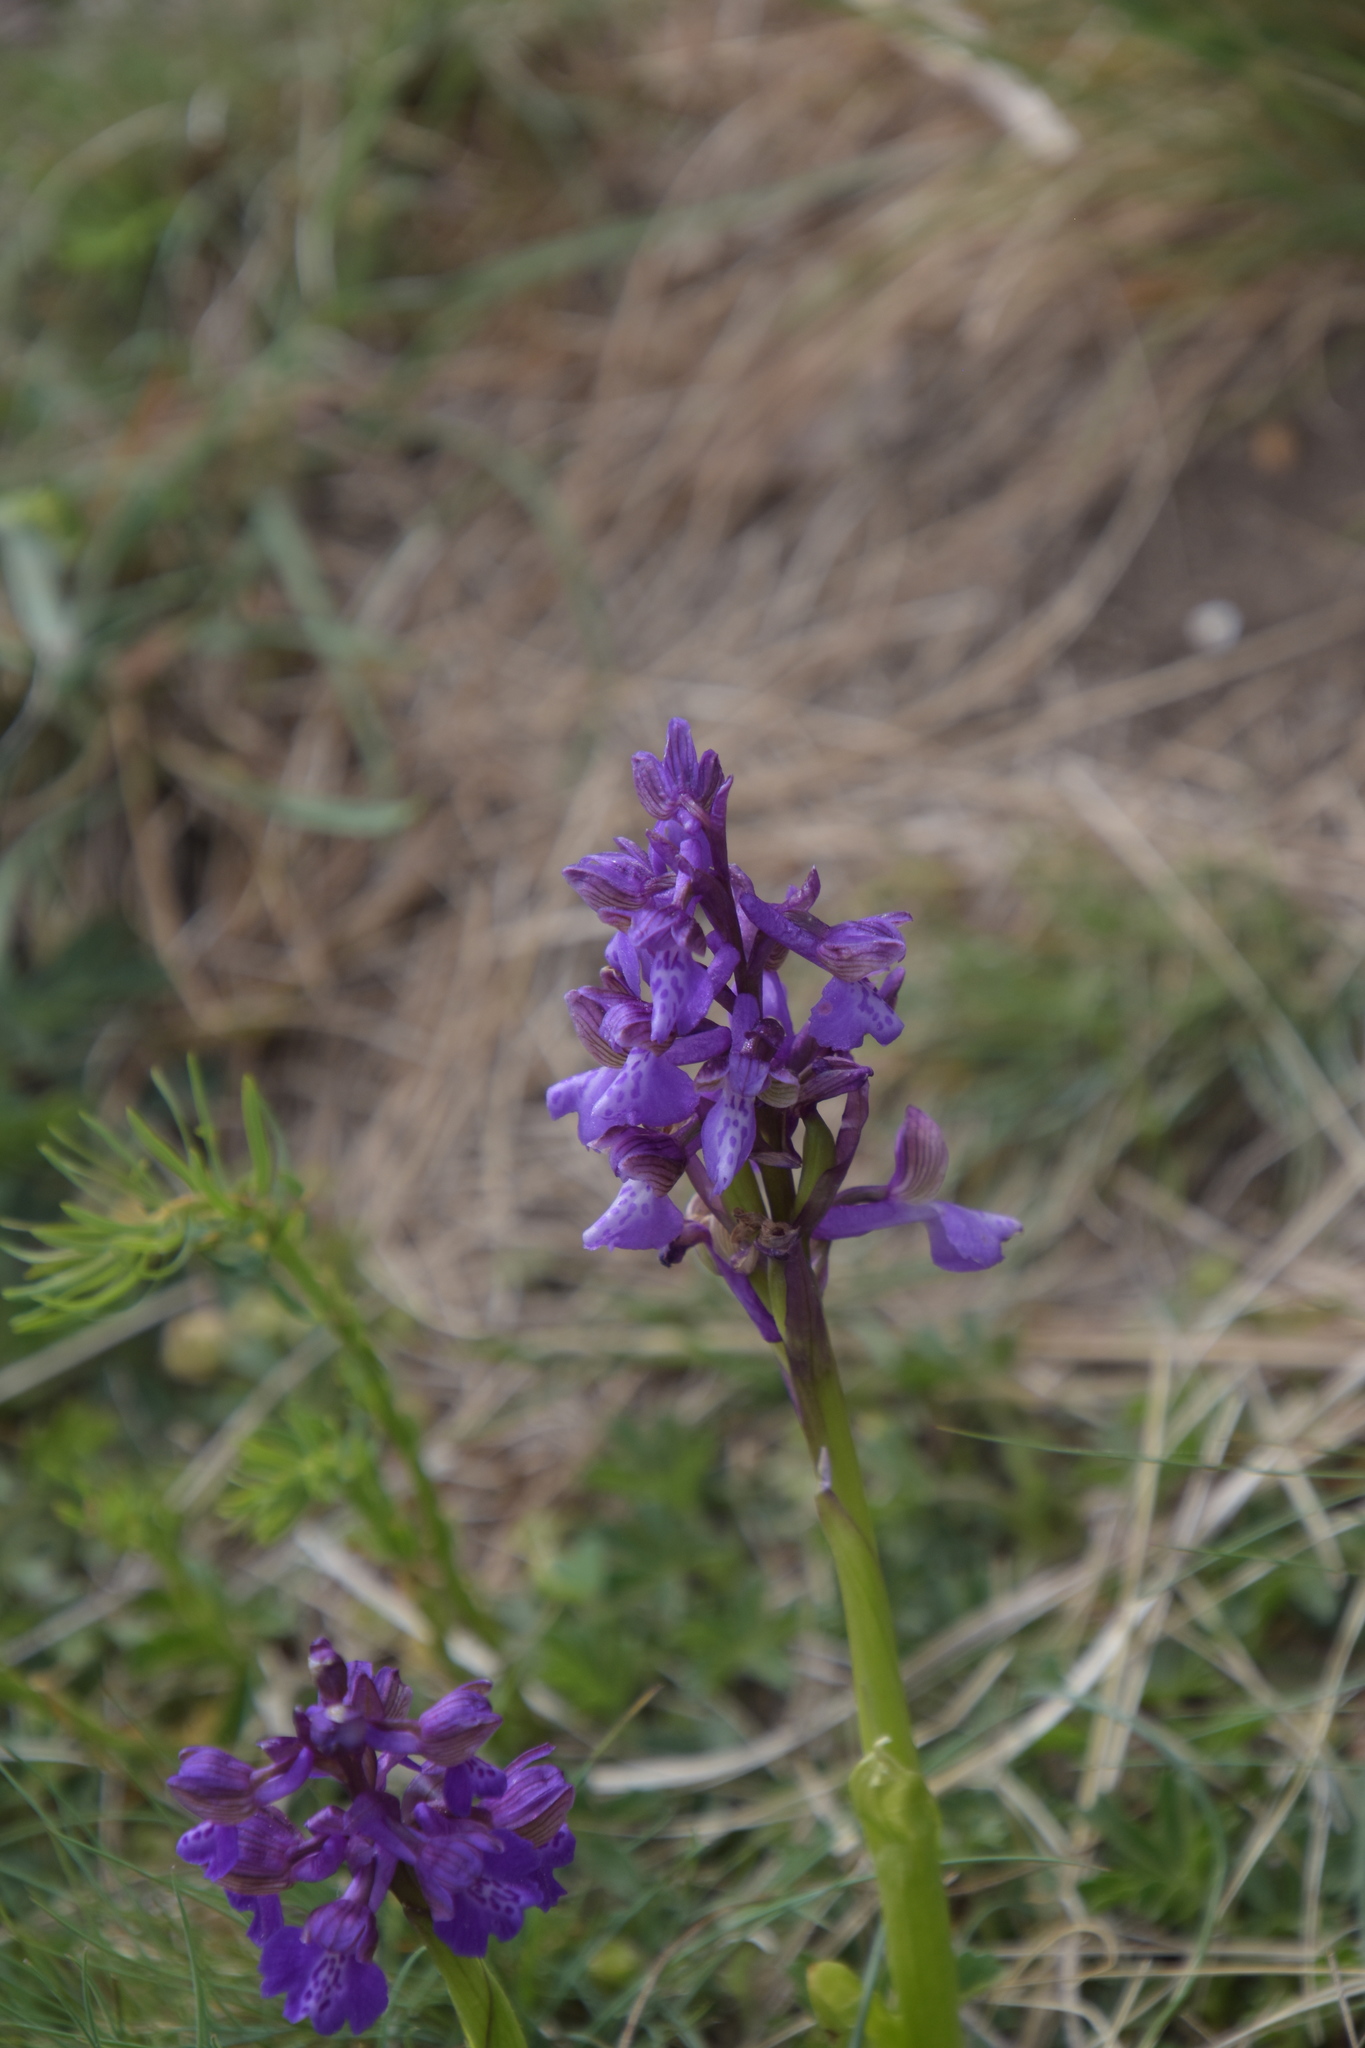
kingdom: Plantae
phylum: Tracheophyta
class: Liliopsida
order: Asparagales
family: Orchidaceae
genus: Anacamptis
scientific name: Anacamptis morio
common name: Green-winged orchid
